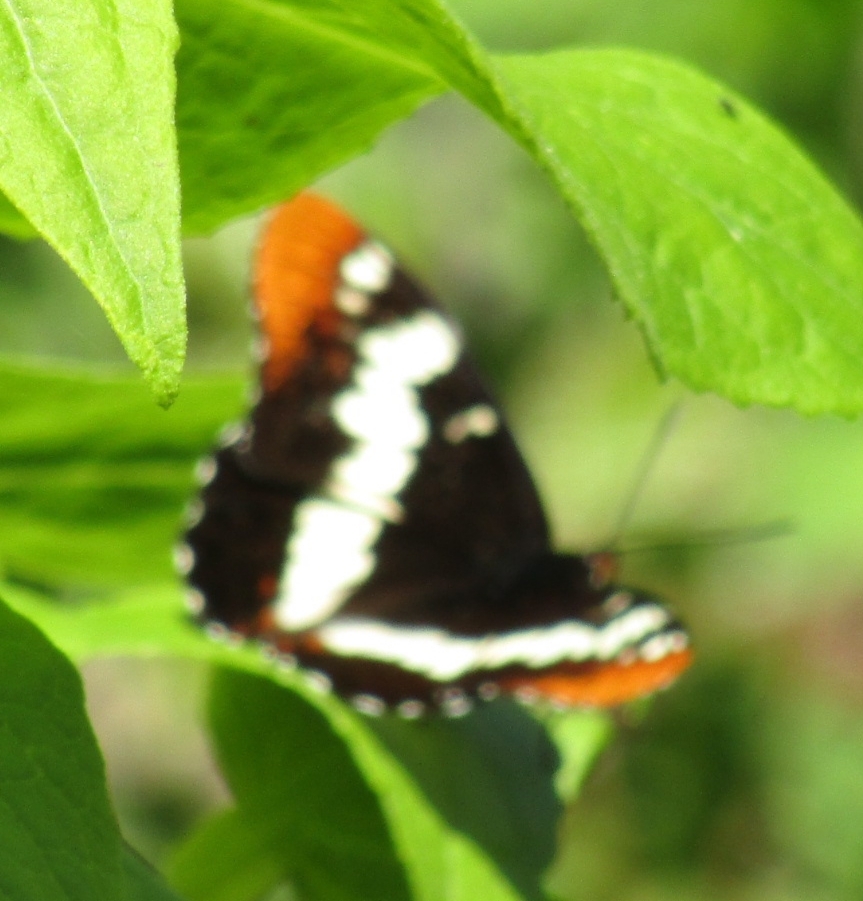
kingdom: Animalia
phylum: Arthropoda
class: Insecta
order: Lepidoptera
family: Nymphalidae
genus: Limenitis
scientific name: Limenitis lorquini
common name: Lorquin's admiral
